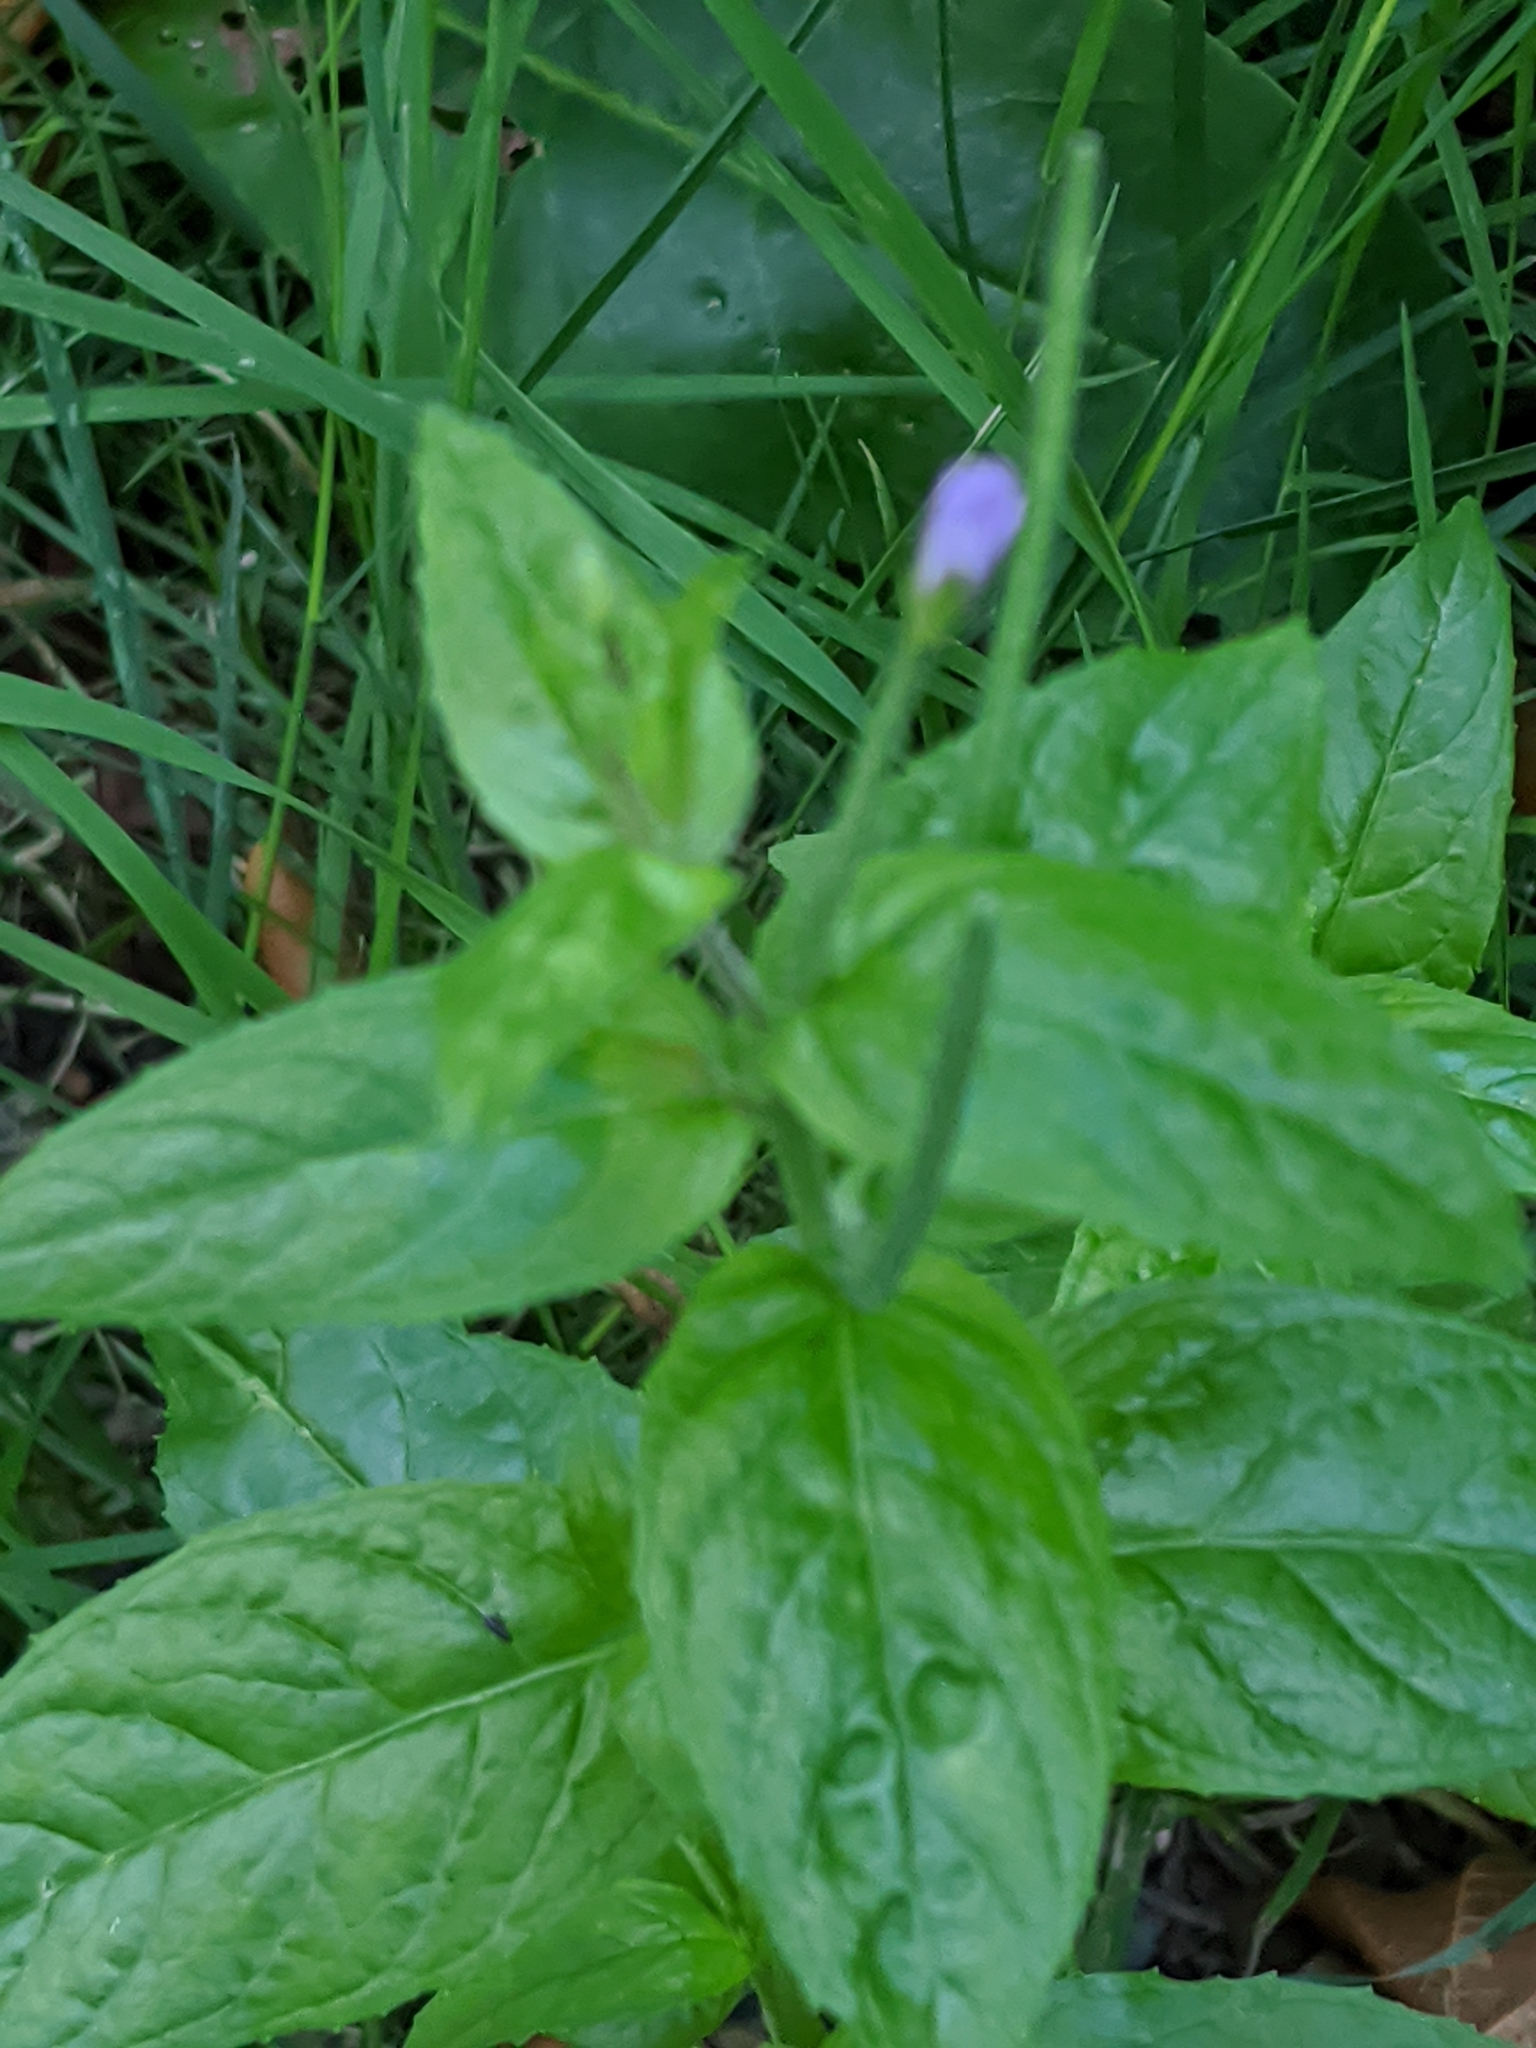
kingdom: Plantae
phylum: Tracheophyta
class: Magnoliopsida
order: Myrtales
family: Onagraceae
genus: Epilobium
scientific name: Epilobium ciliatum
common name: American willowherb
